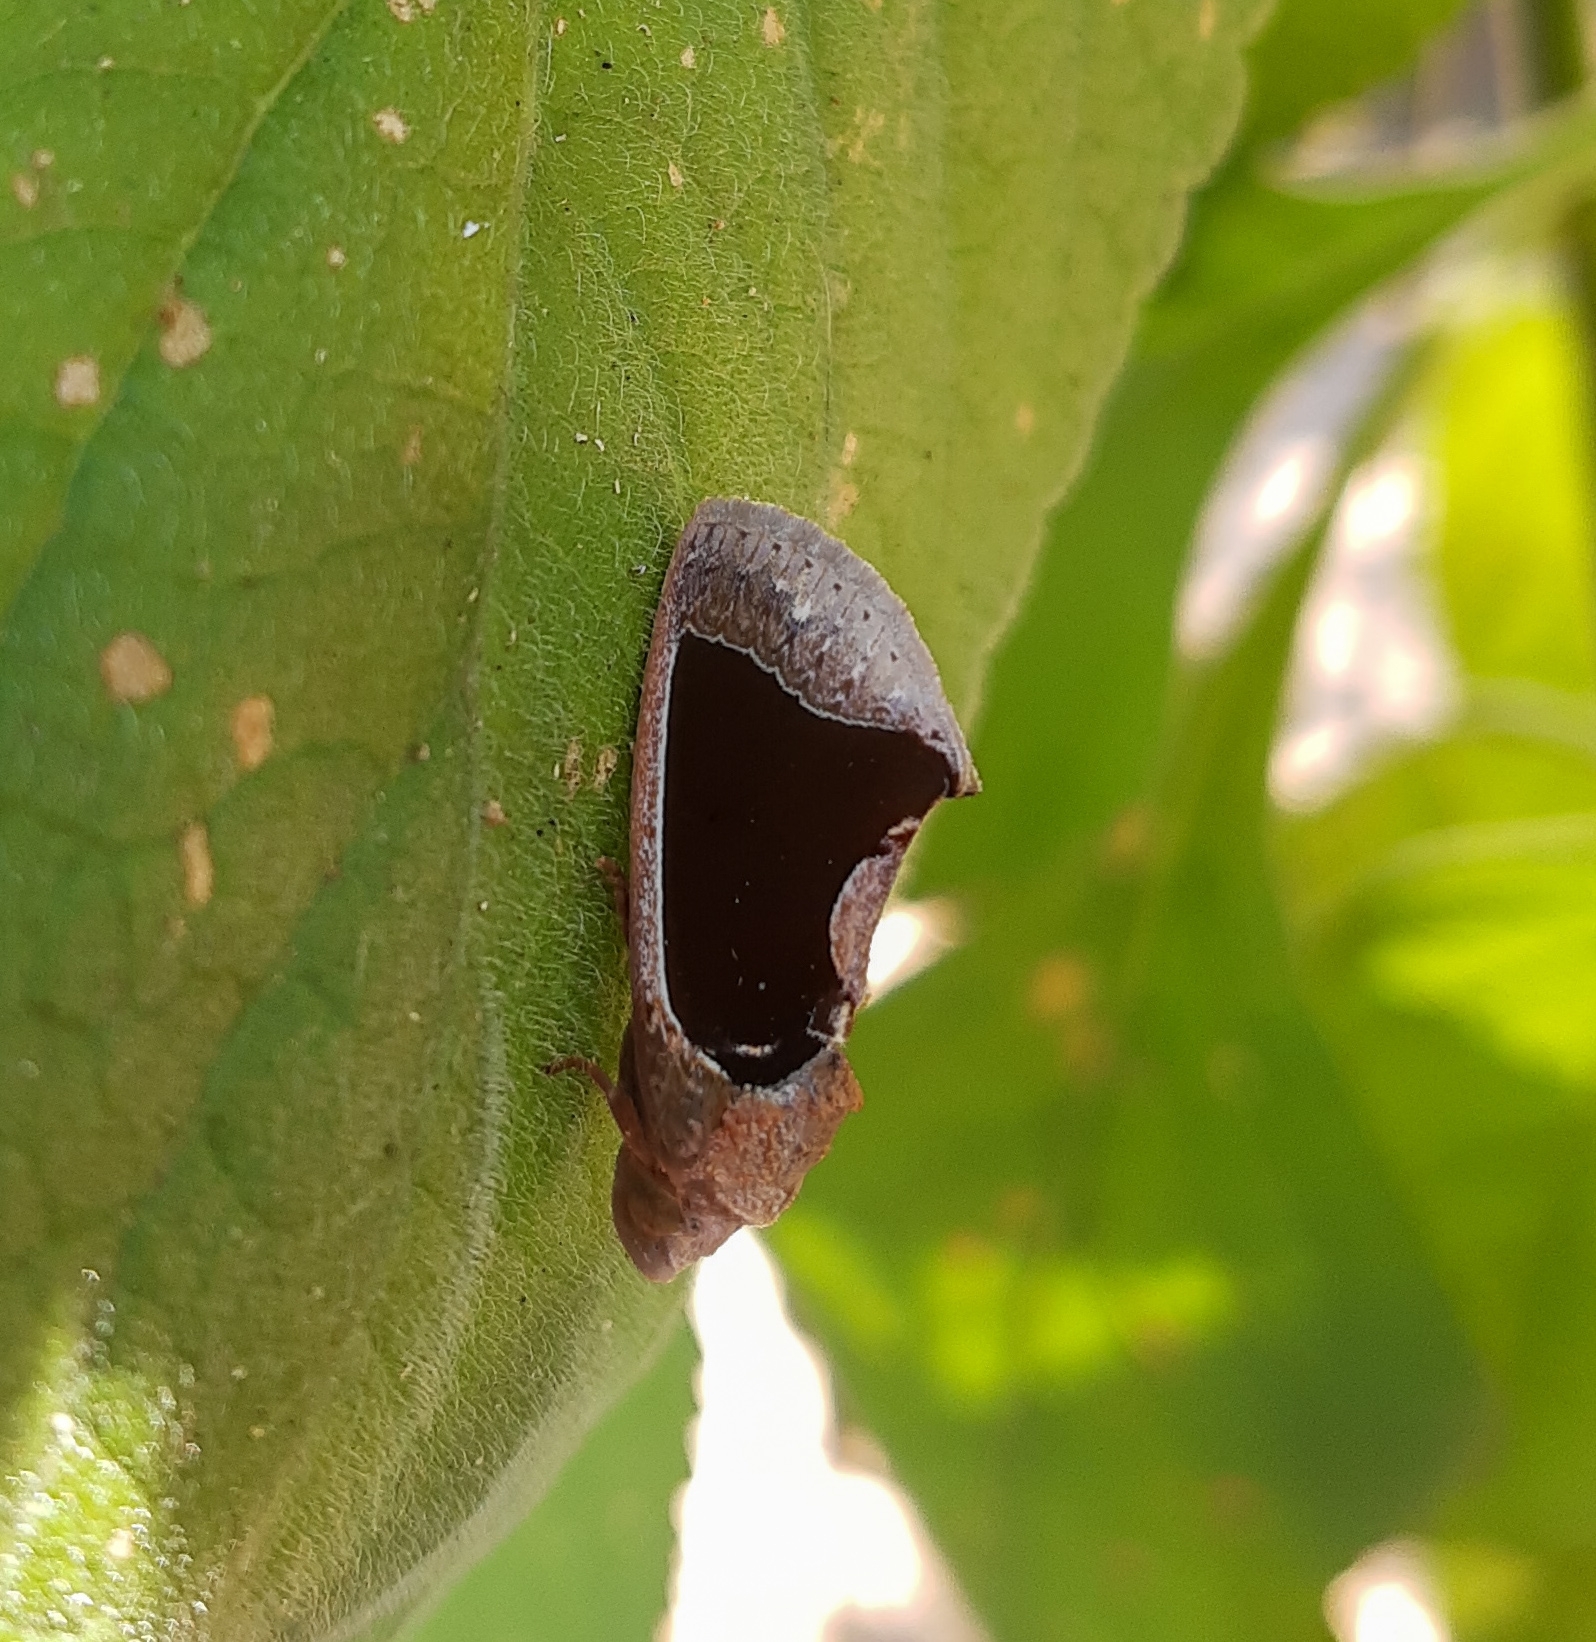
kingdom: Animalia
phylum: Arthropoda
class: Insecta
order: Lepidoptera
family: Erebidae
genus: Gonodonta
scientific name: Gonodonta sinaldus
